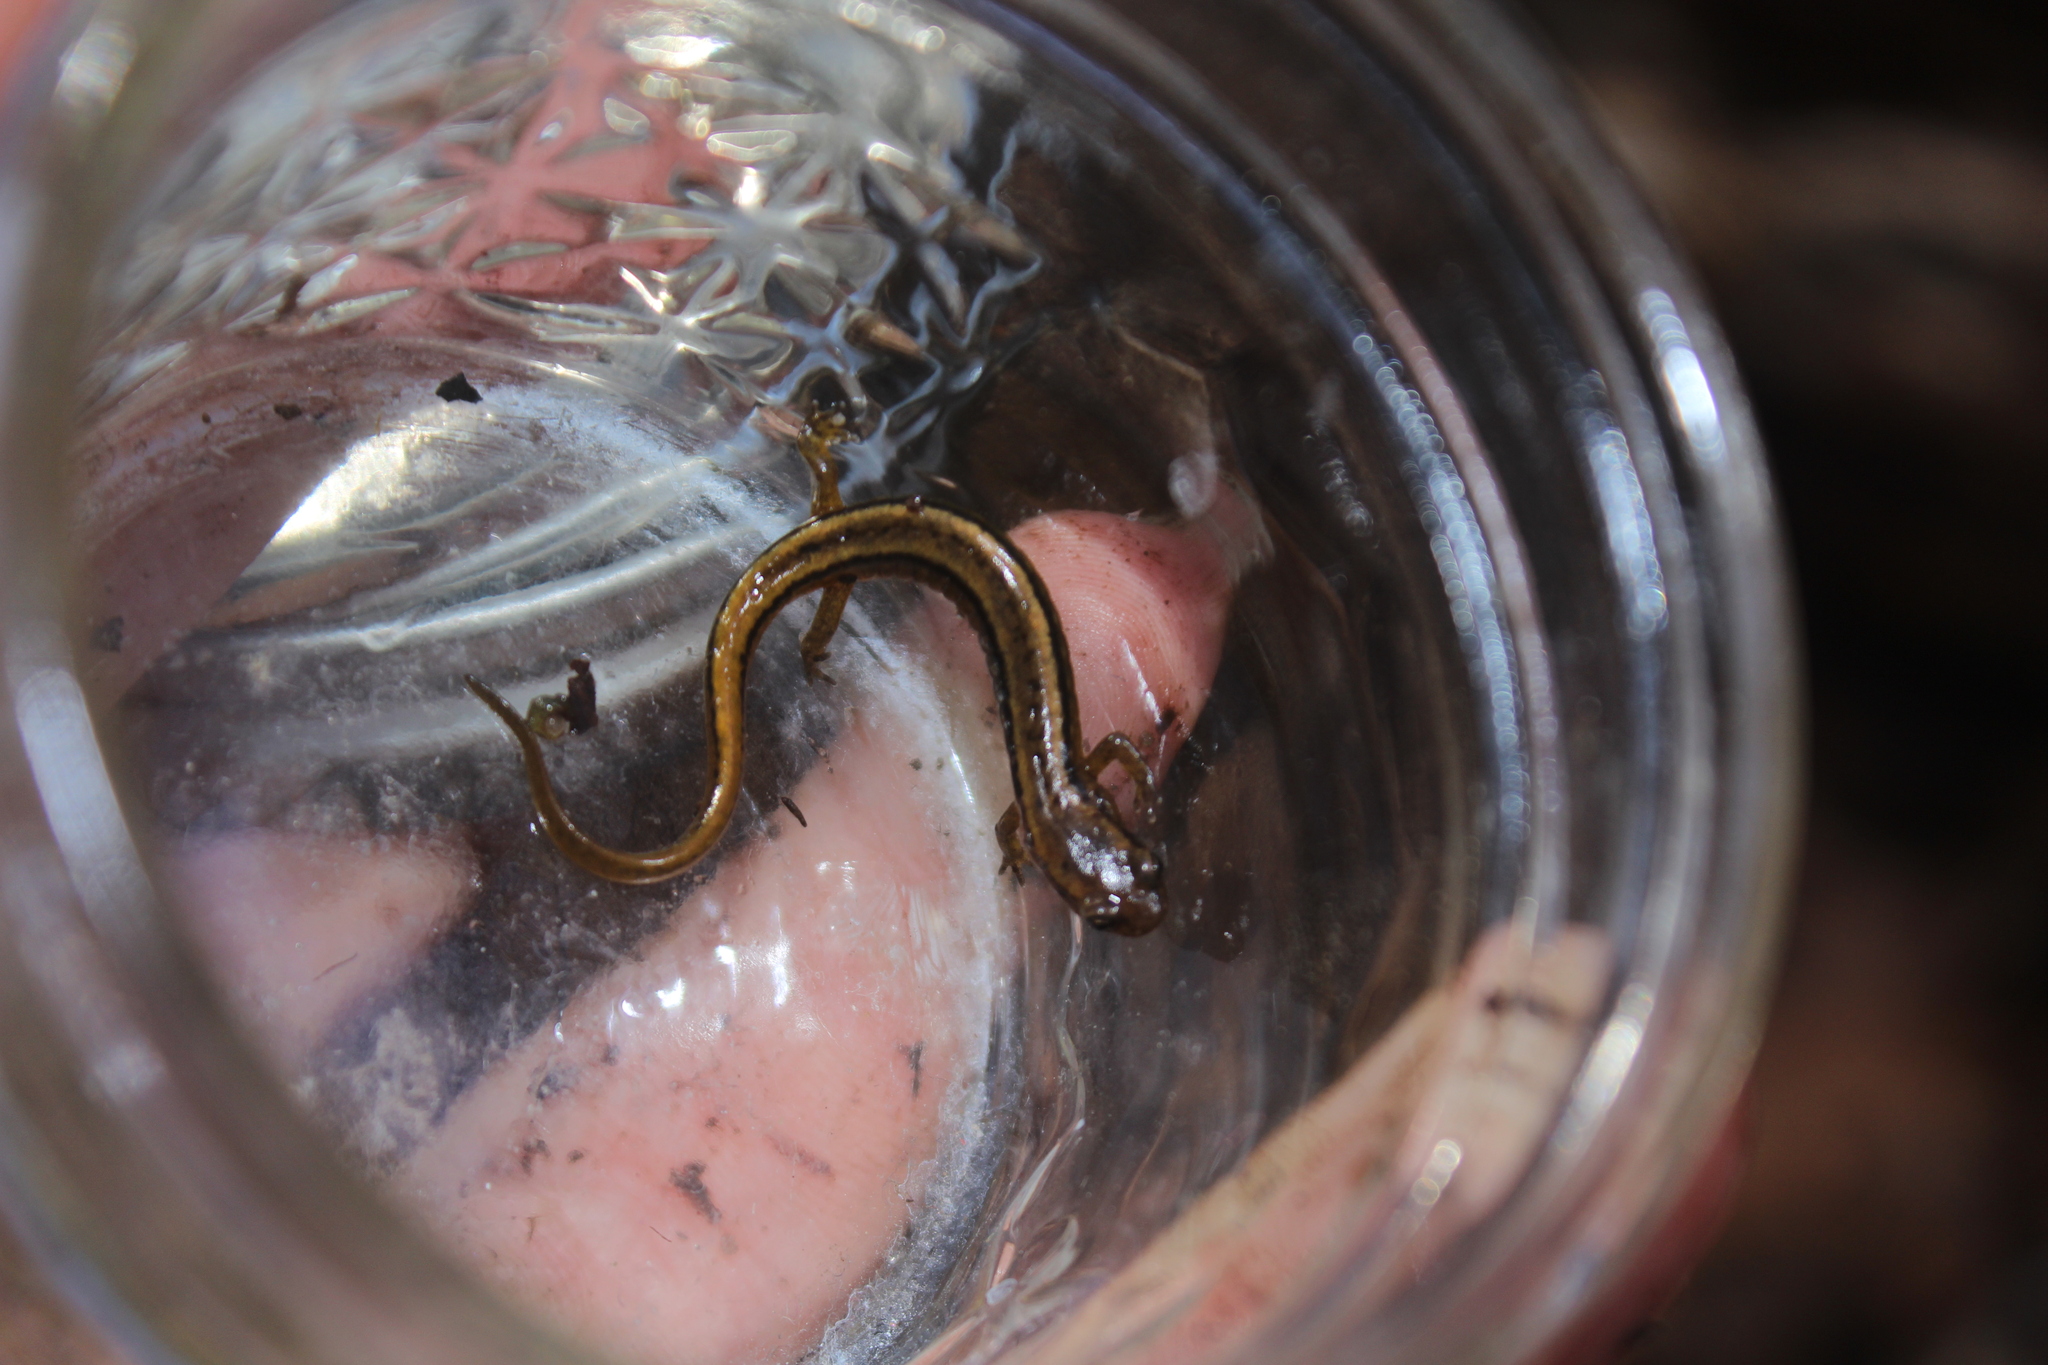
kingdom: Animalia
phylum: Chordata
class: Amphibia
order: Caudata
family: Plethodontidae
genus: Eurycea
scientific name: Eurycea bislineata
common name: Northern two-lined salamander
